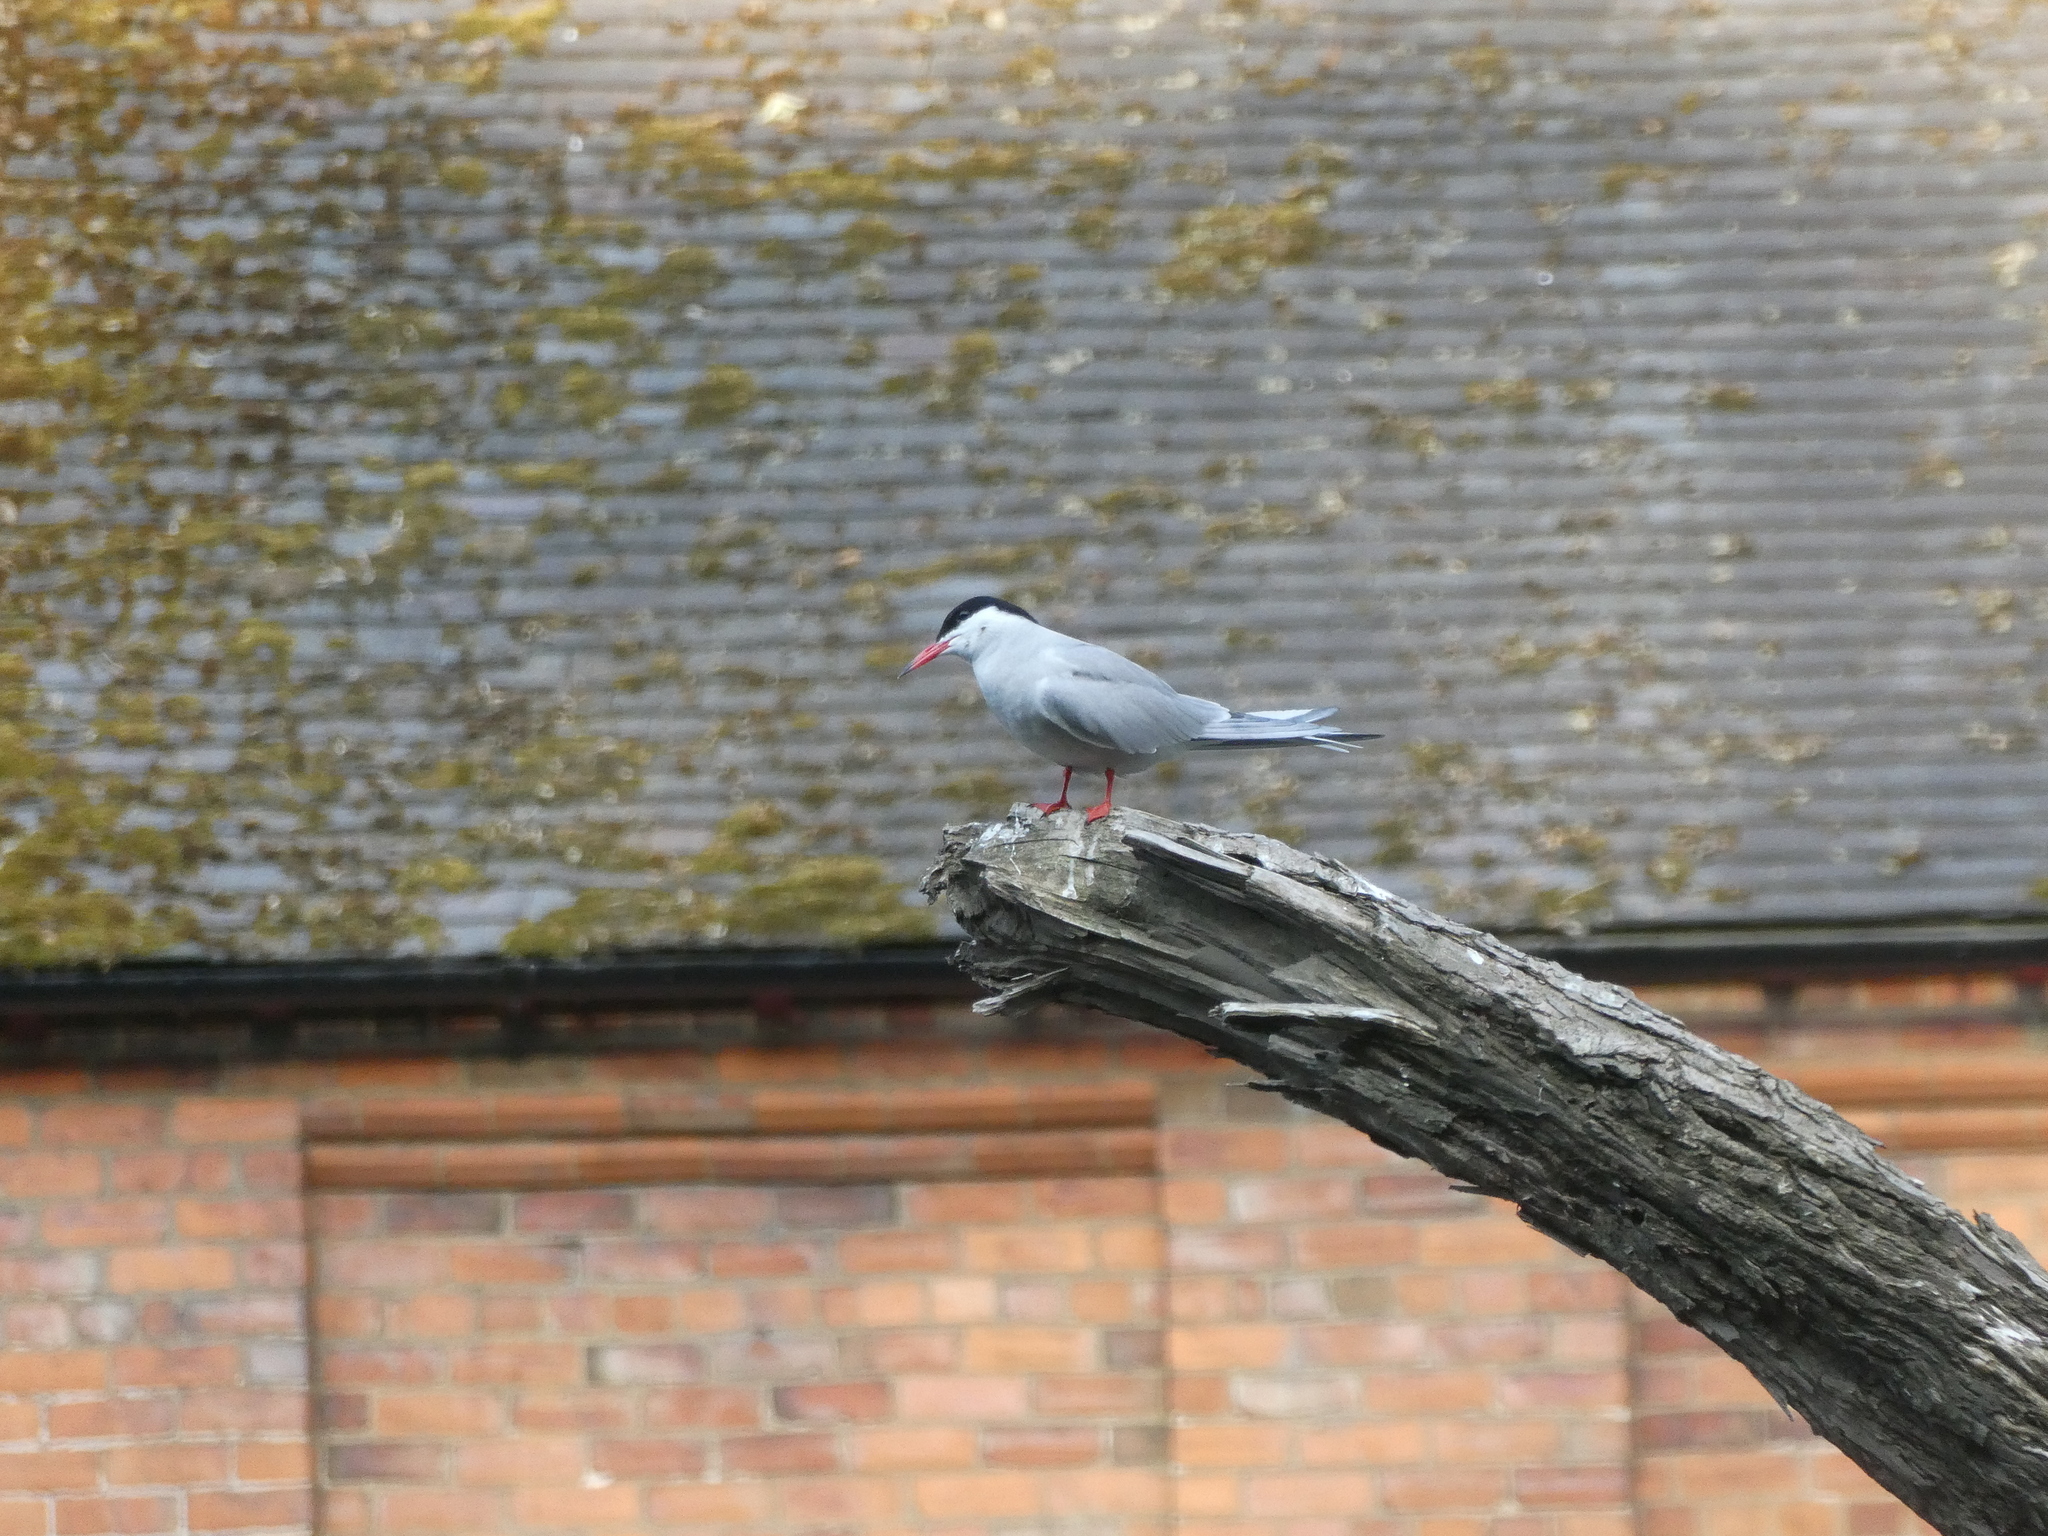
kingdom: Animalia
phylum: Chordata
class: Aves
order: Charadriiformes
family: Laridae
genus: Sterna
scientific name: Sterna hirundo
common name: Common tern
